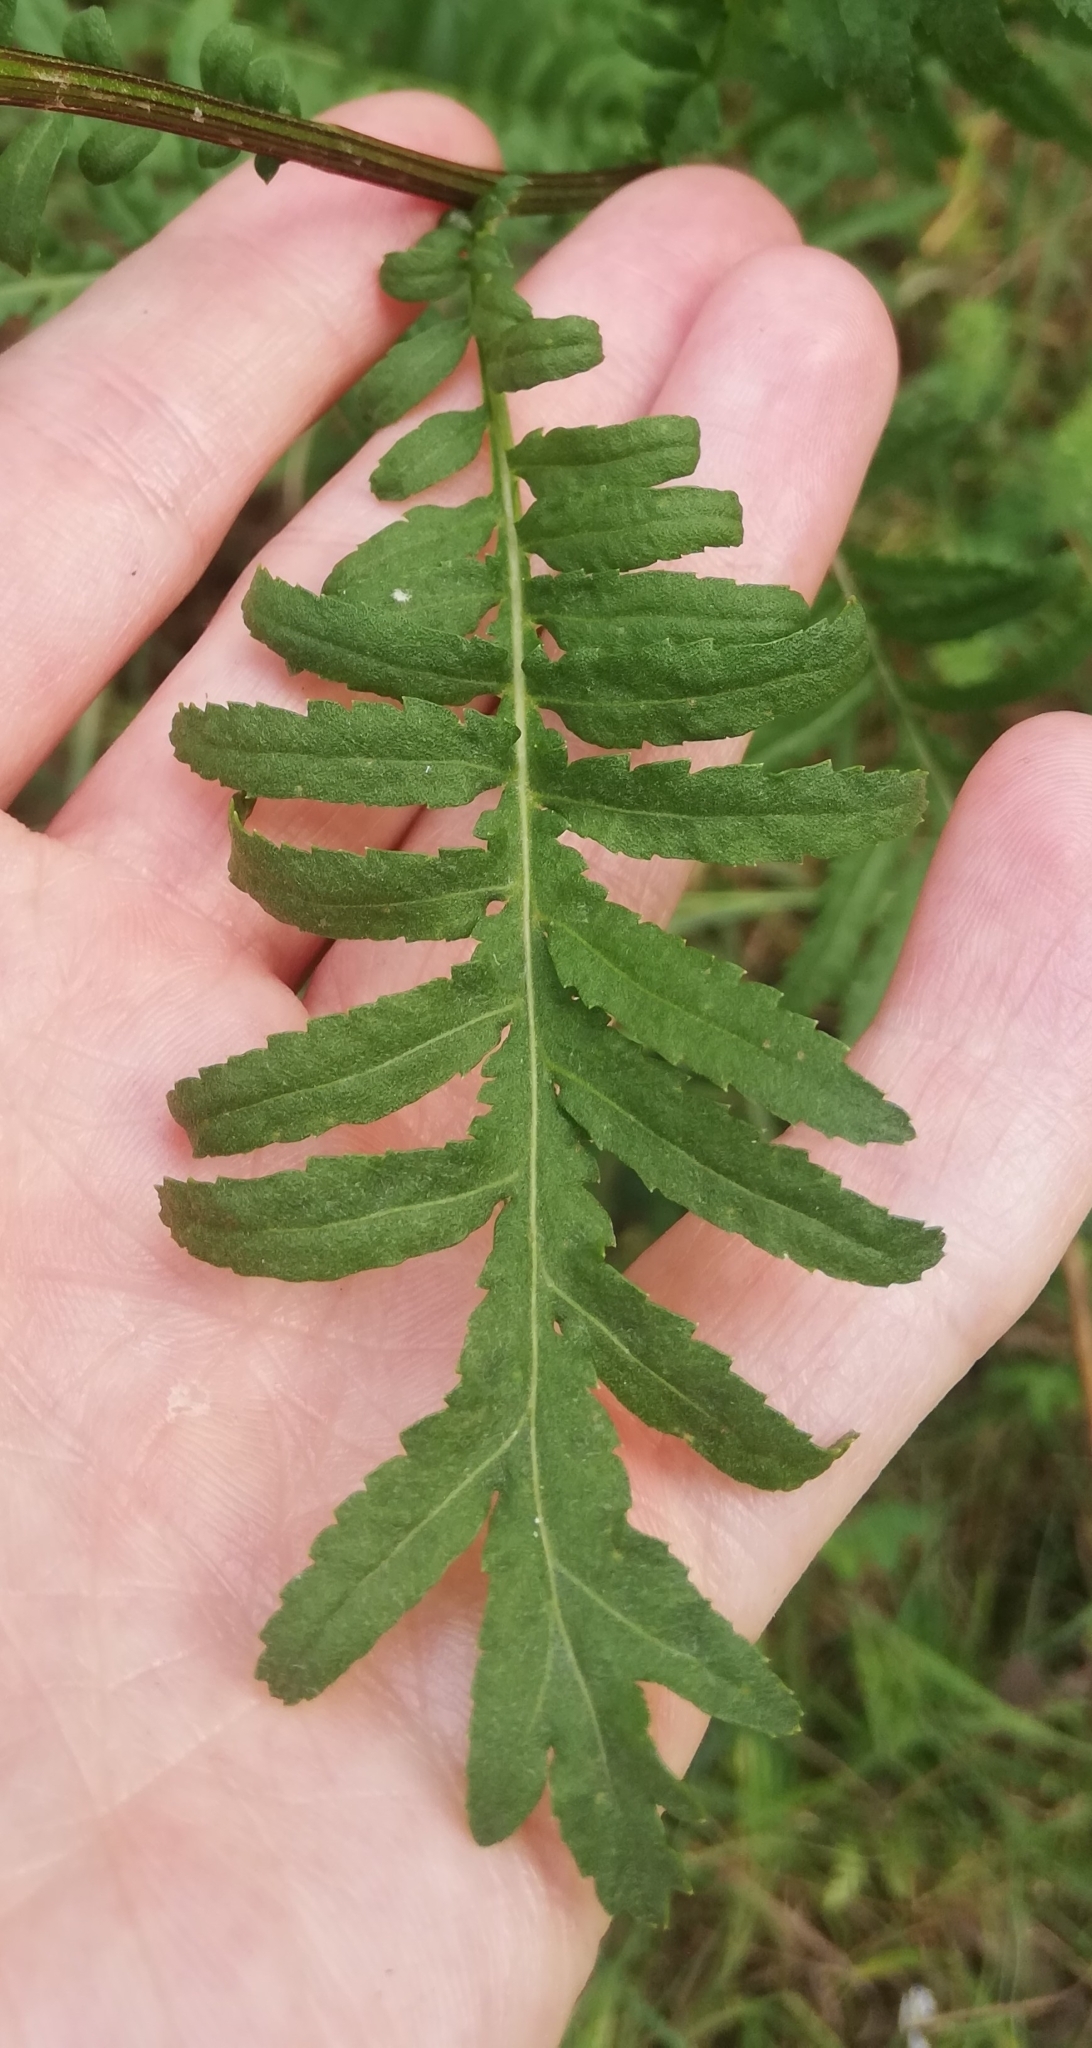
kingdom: Plantae
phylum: Tracheophyta
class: Magnoliopsida
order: Asterales
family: Asteraceae
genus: Tanacetum
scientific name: Tanacetum vulgare
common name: Common tansy
